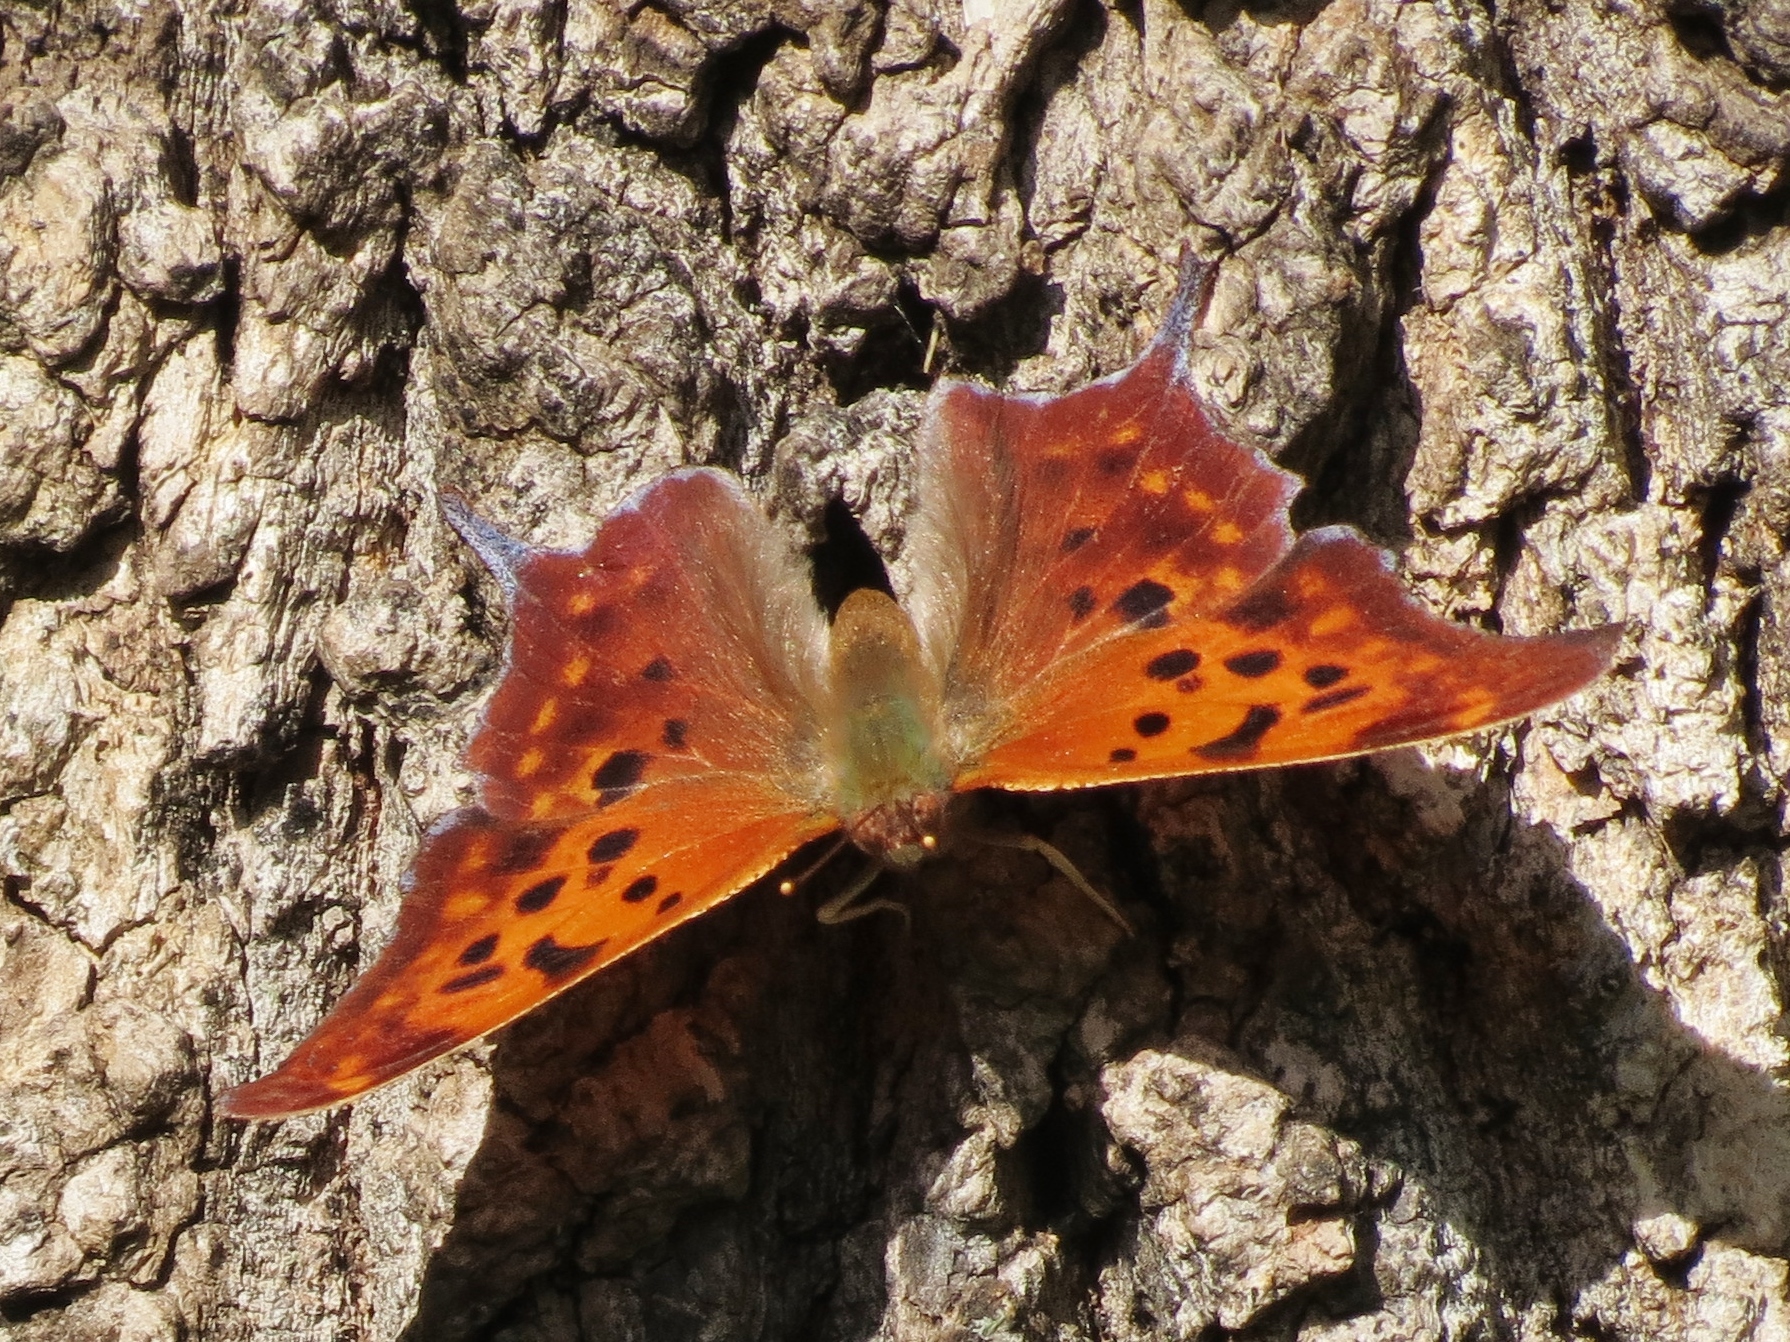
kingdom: Animalia
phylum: Arthropoda
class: Insecta
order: Lepidoptera
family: Nymphalidae
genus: Polygonia
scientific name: Polygonia interrogationis
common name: Question mark
